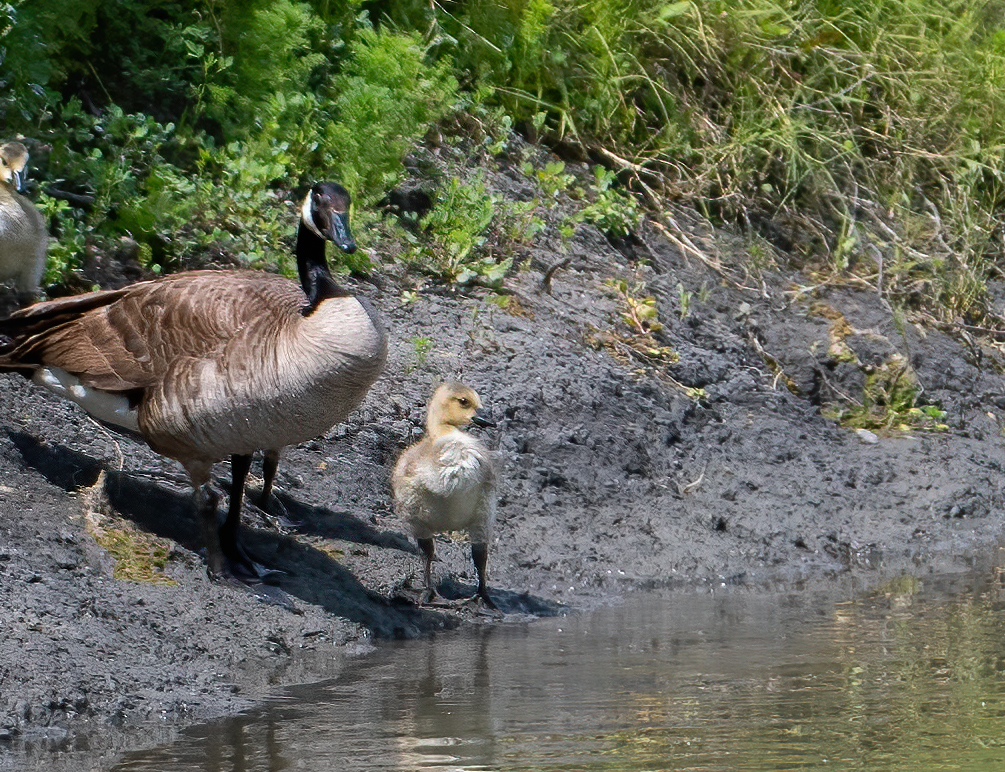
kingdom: Animalia
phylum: Chordata
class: Aves
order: Anseriformes
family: Anatidae
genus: Branta
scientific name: Branta canadensis
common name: Canada goose
